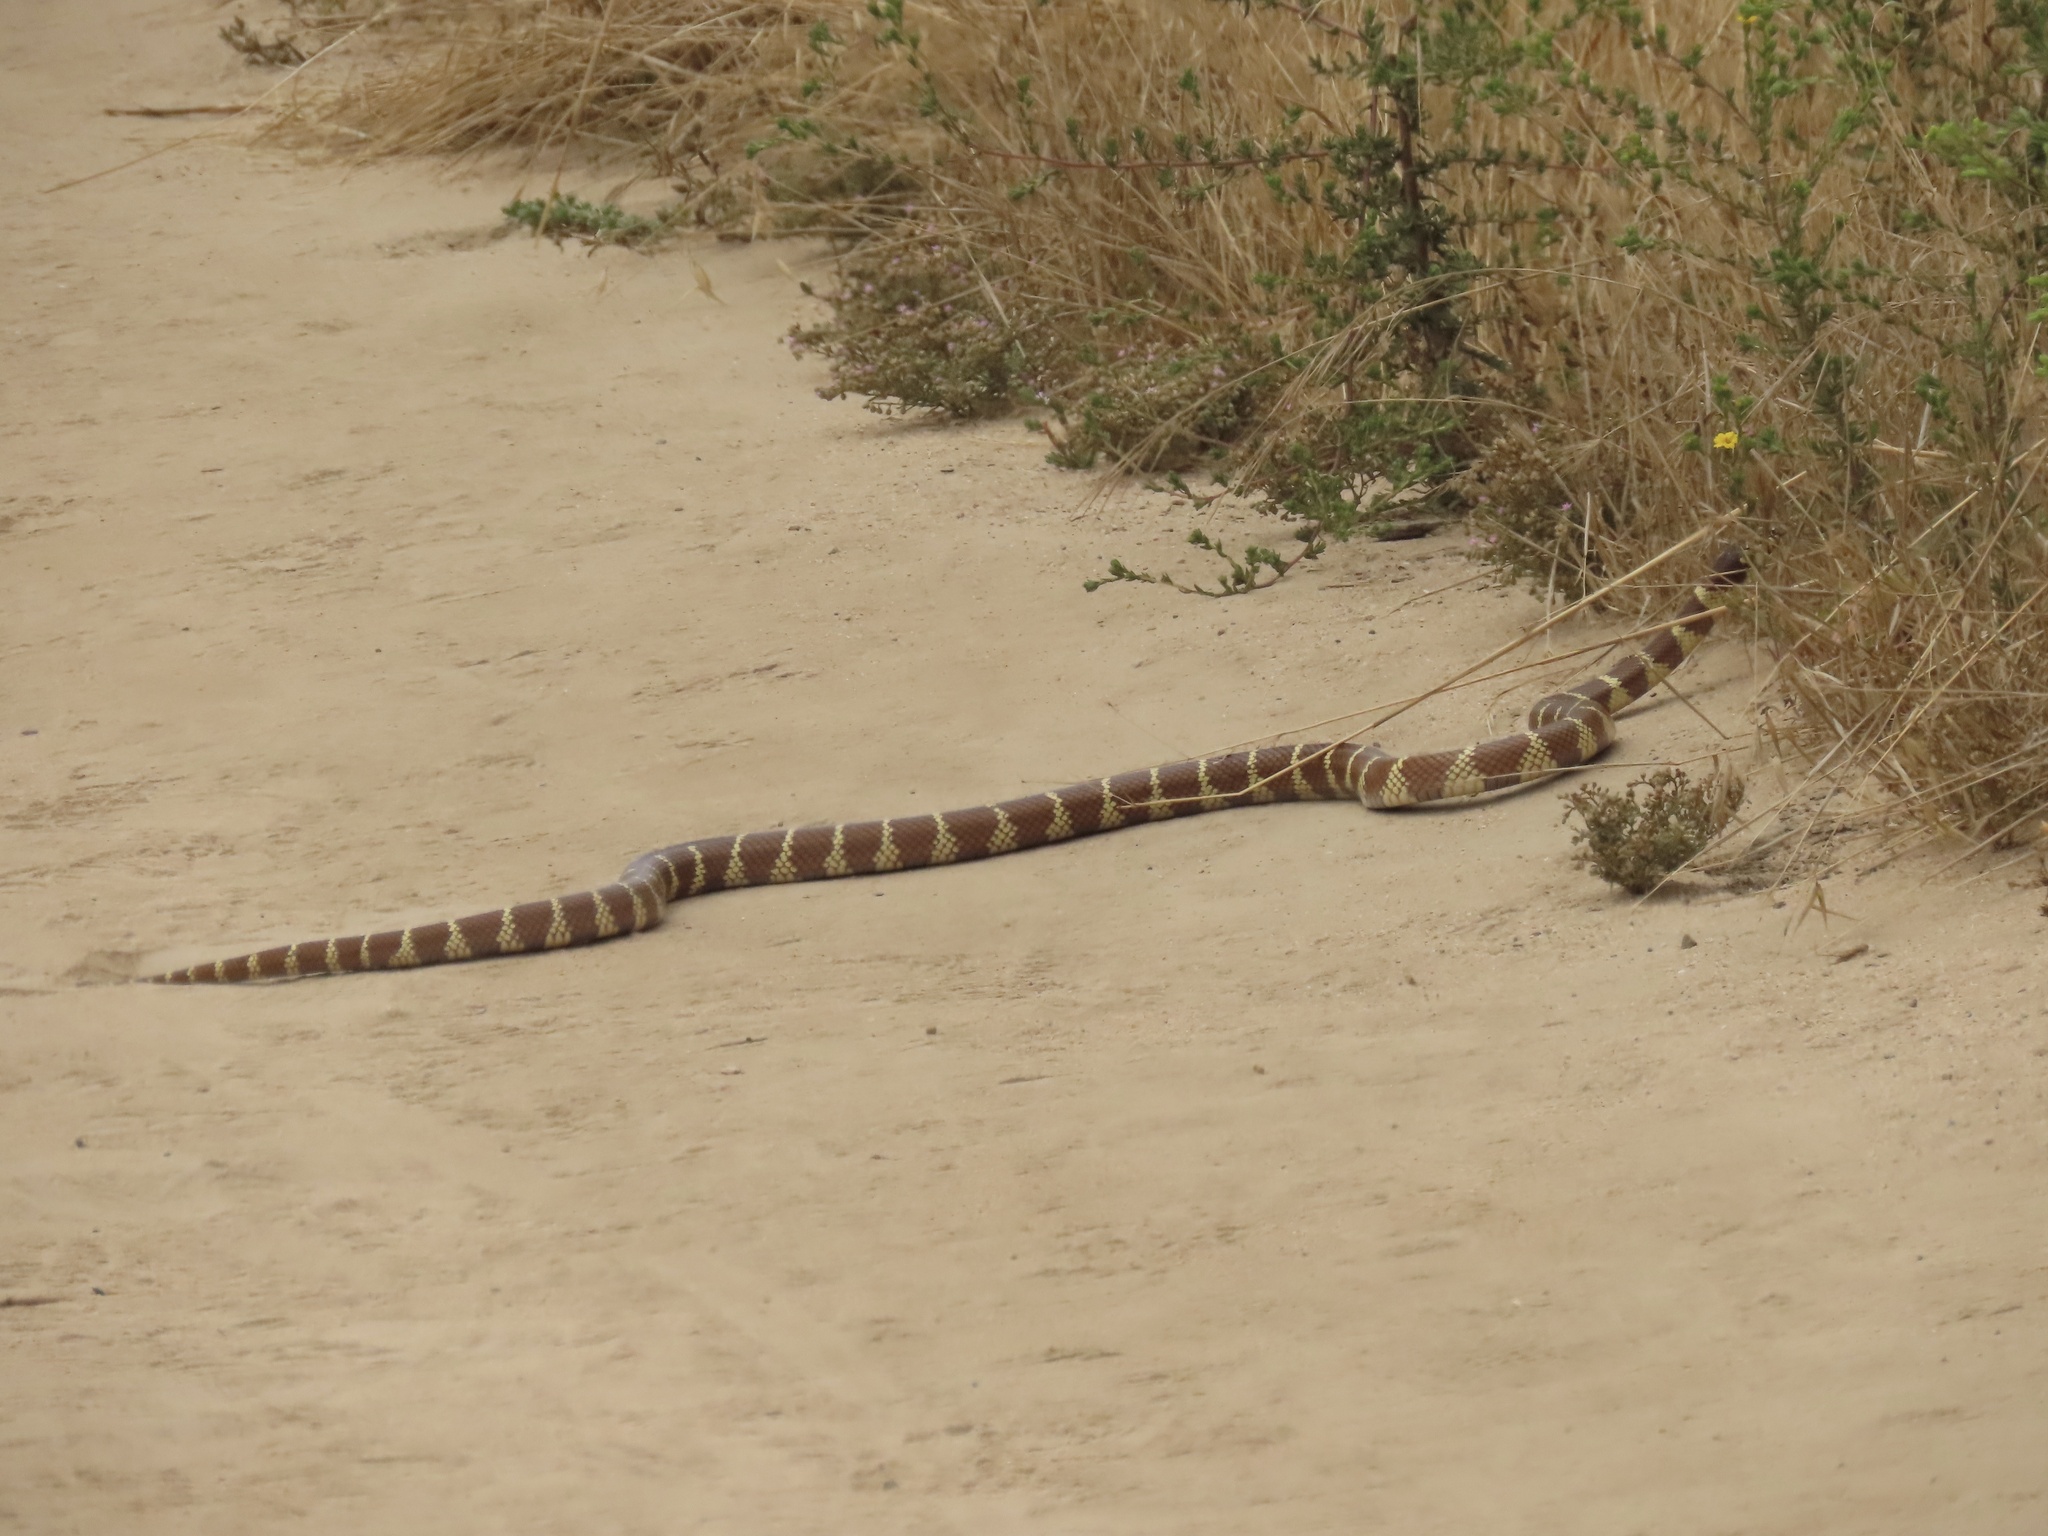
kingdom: Animalia
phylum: Chordata
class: Squamata
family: Colubridae
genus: Lampropeltis
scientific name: Lampropeltis californiae
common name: California kingsnake
